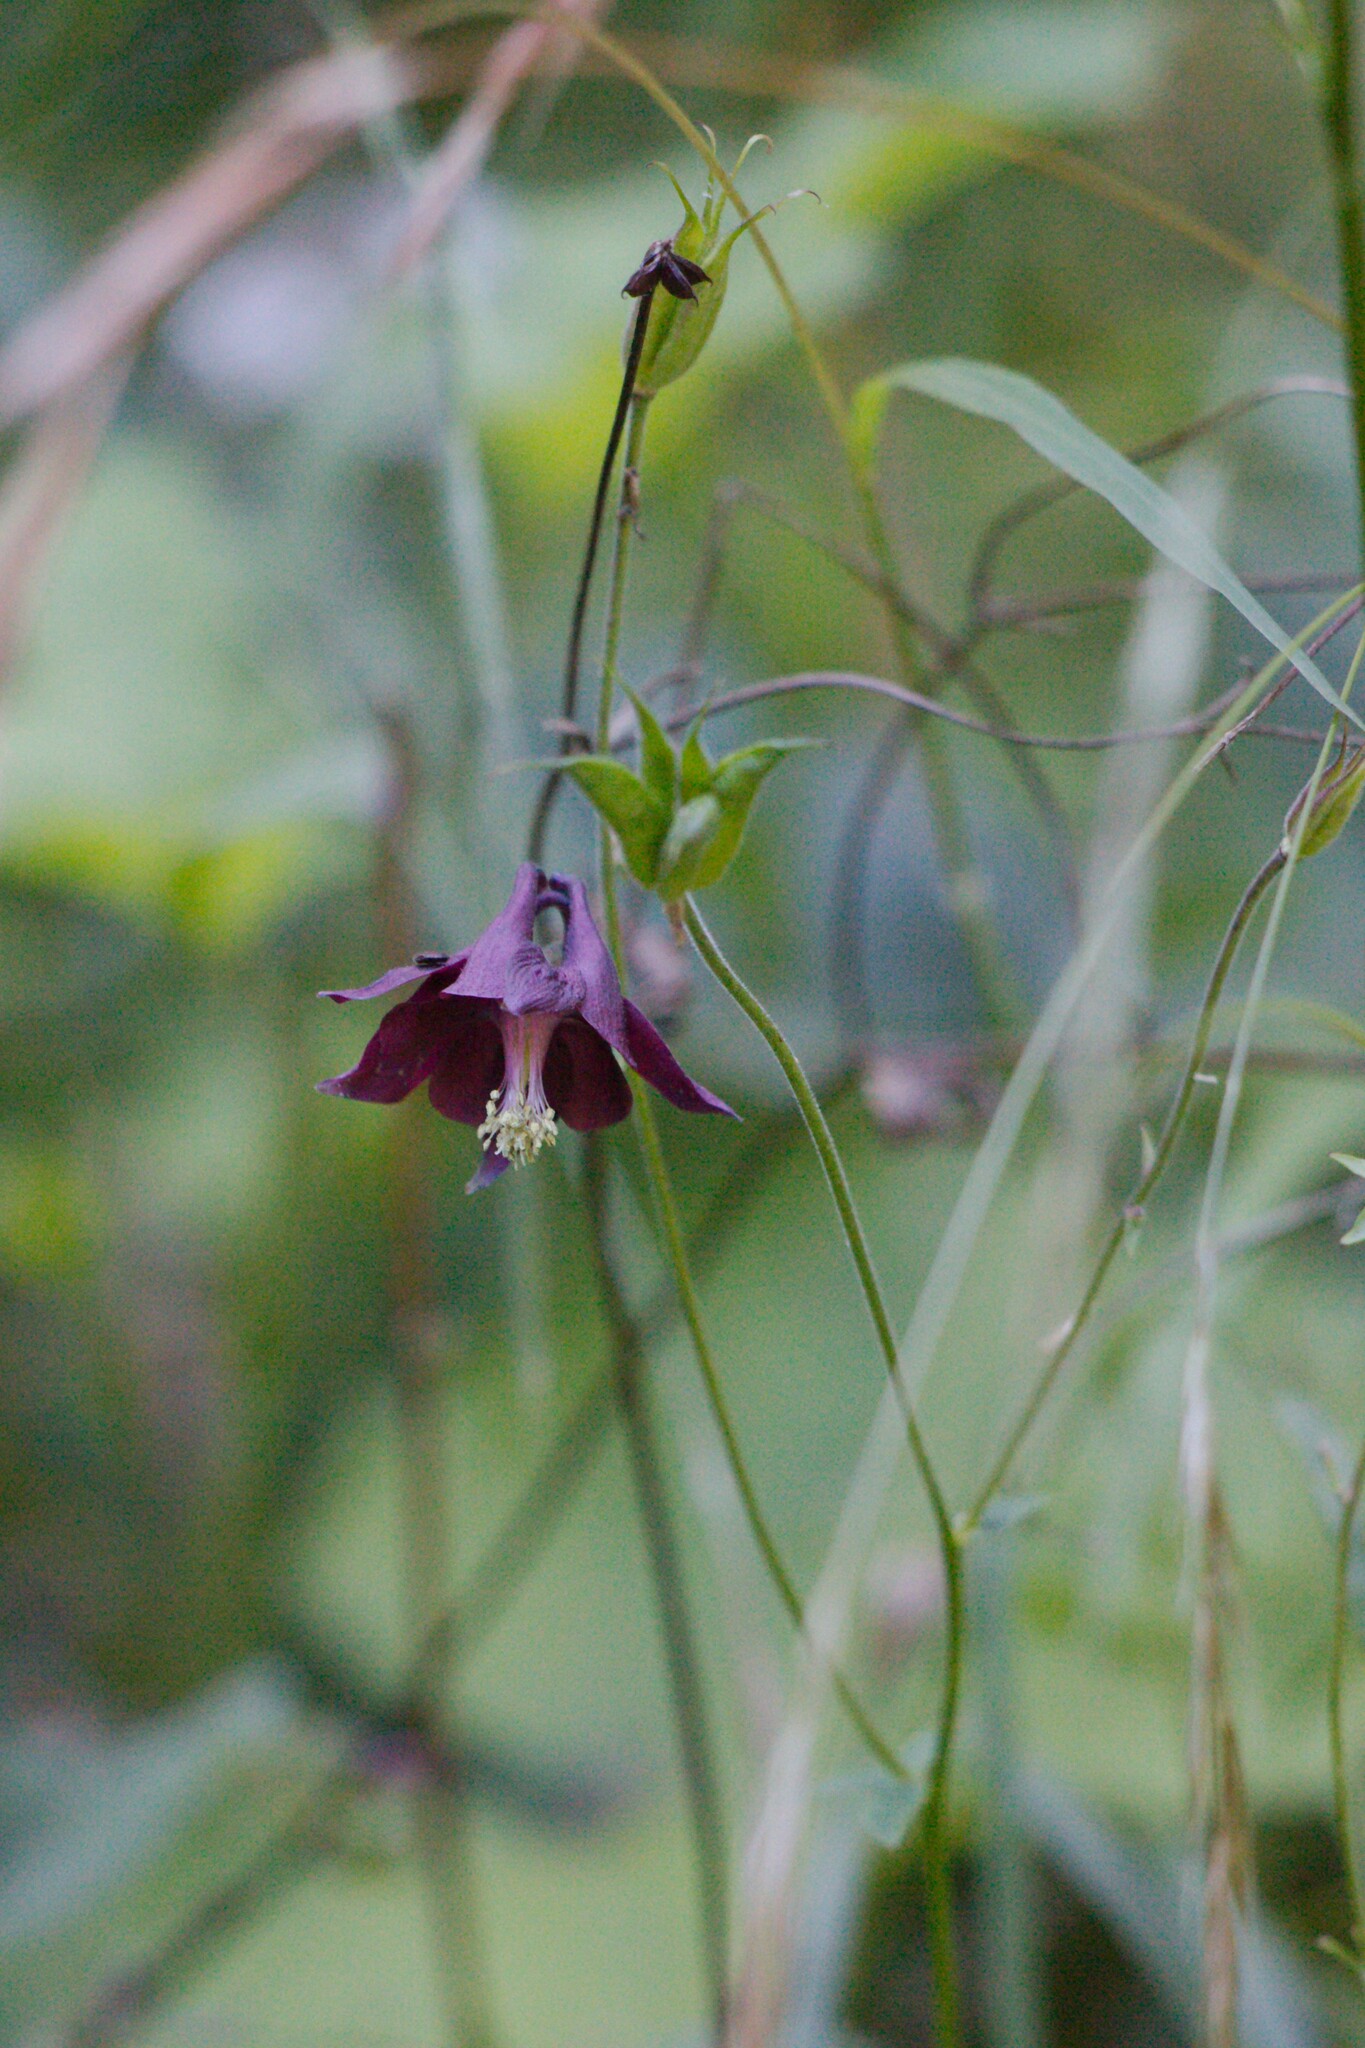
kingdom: Plantae
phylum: Tracheophyta
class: Magnoliopsida
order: Ranunculales
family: Ranunculaceae
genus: Aquilegia
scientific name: Aquilegia atrata
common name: Dark columbine
